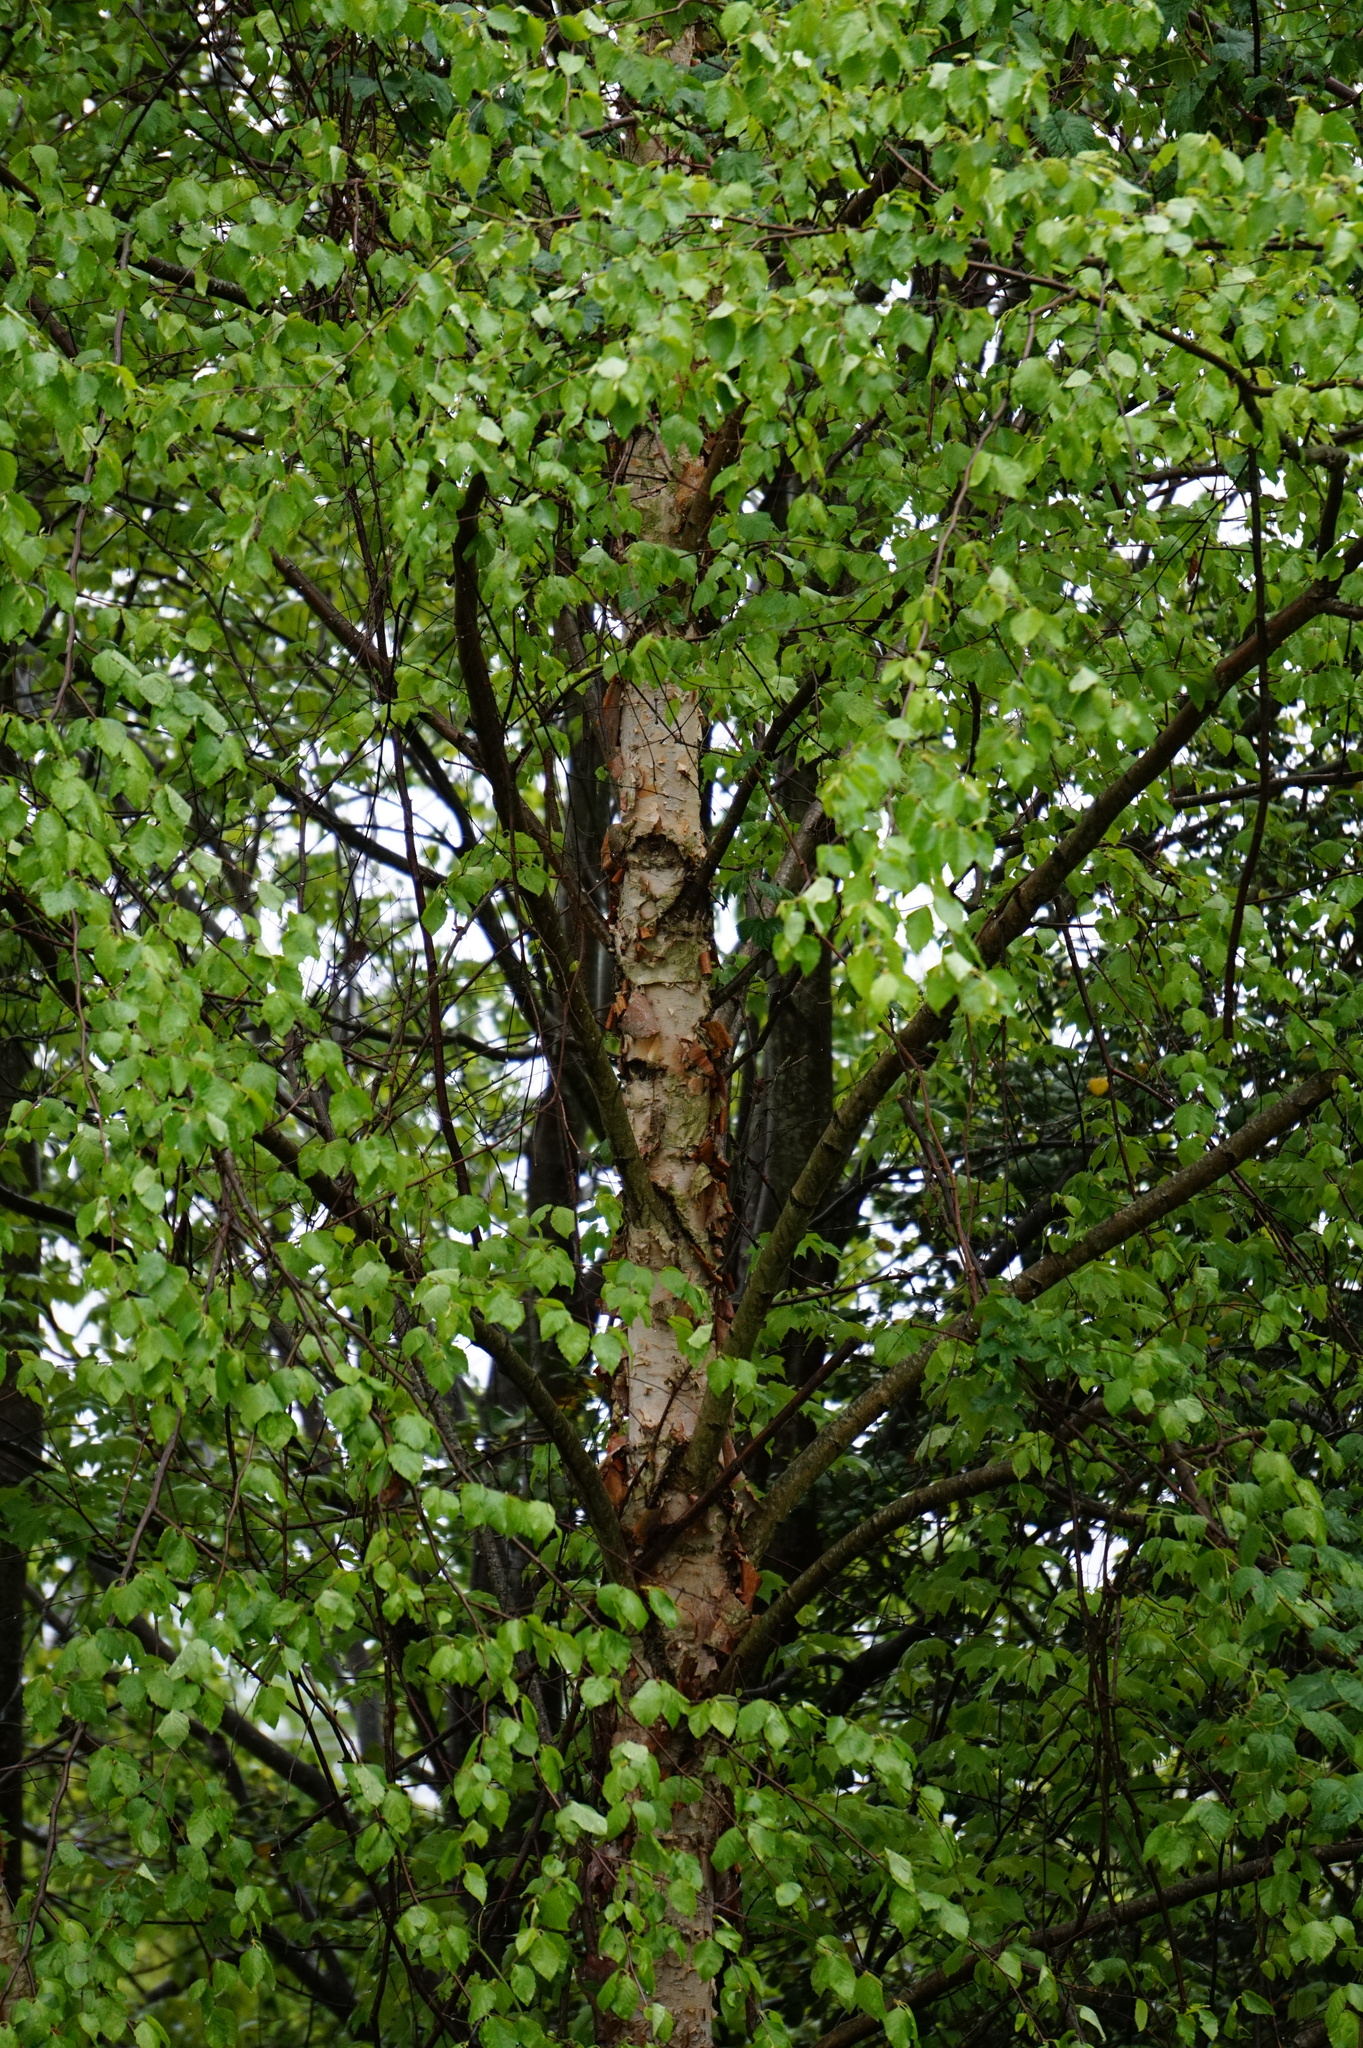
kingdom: Plantae
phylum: Tracheophyta
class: Magnoliopsida
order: Fagales
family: Betulaceae
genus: Betula
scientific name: Betula nigra
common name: Black birch
